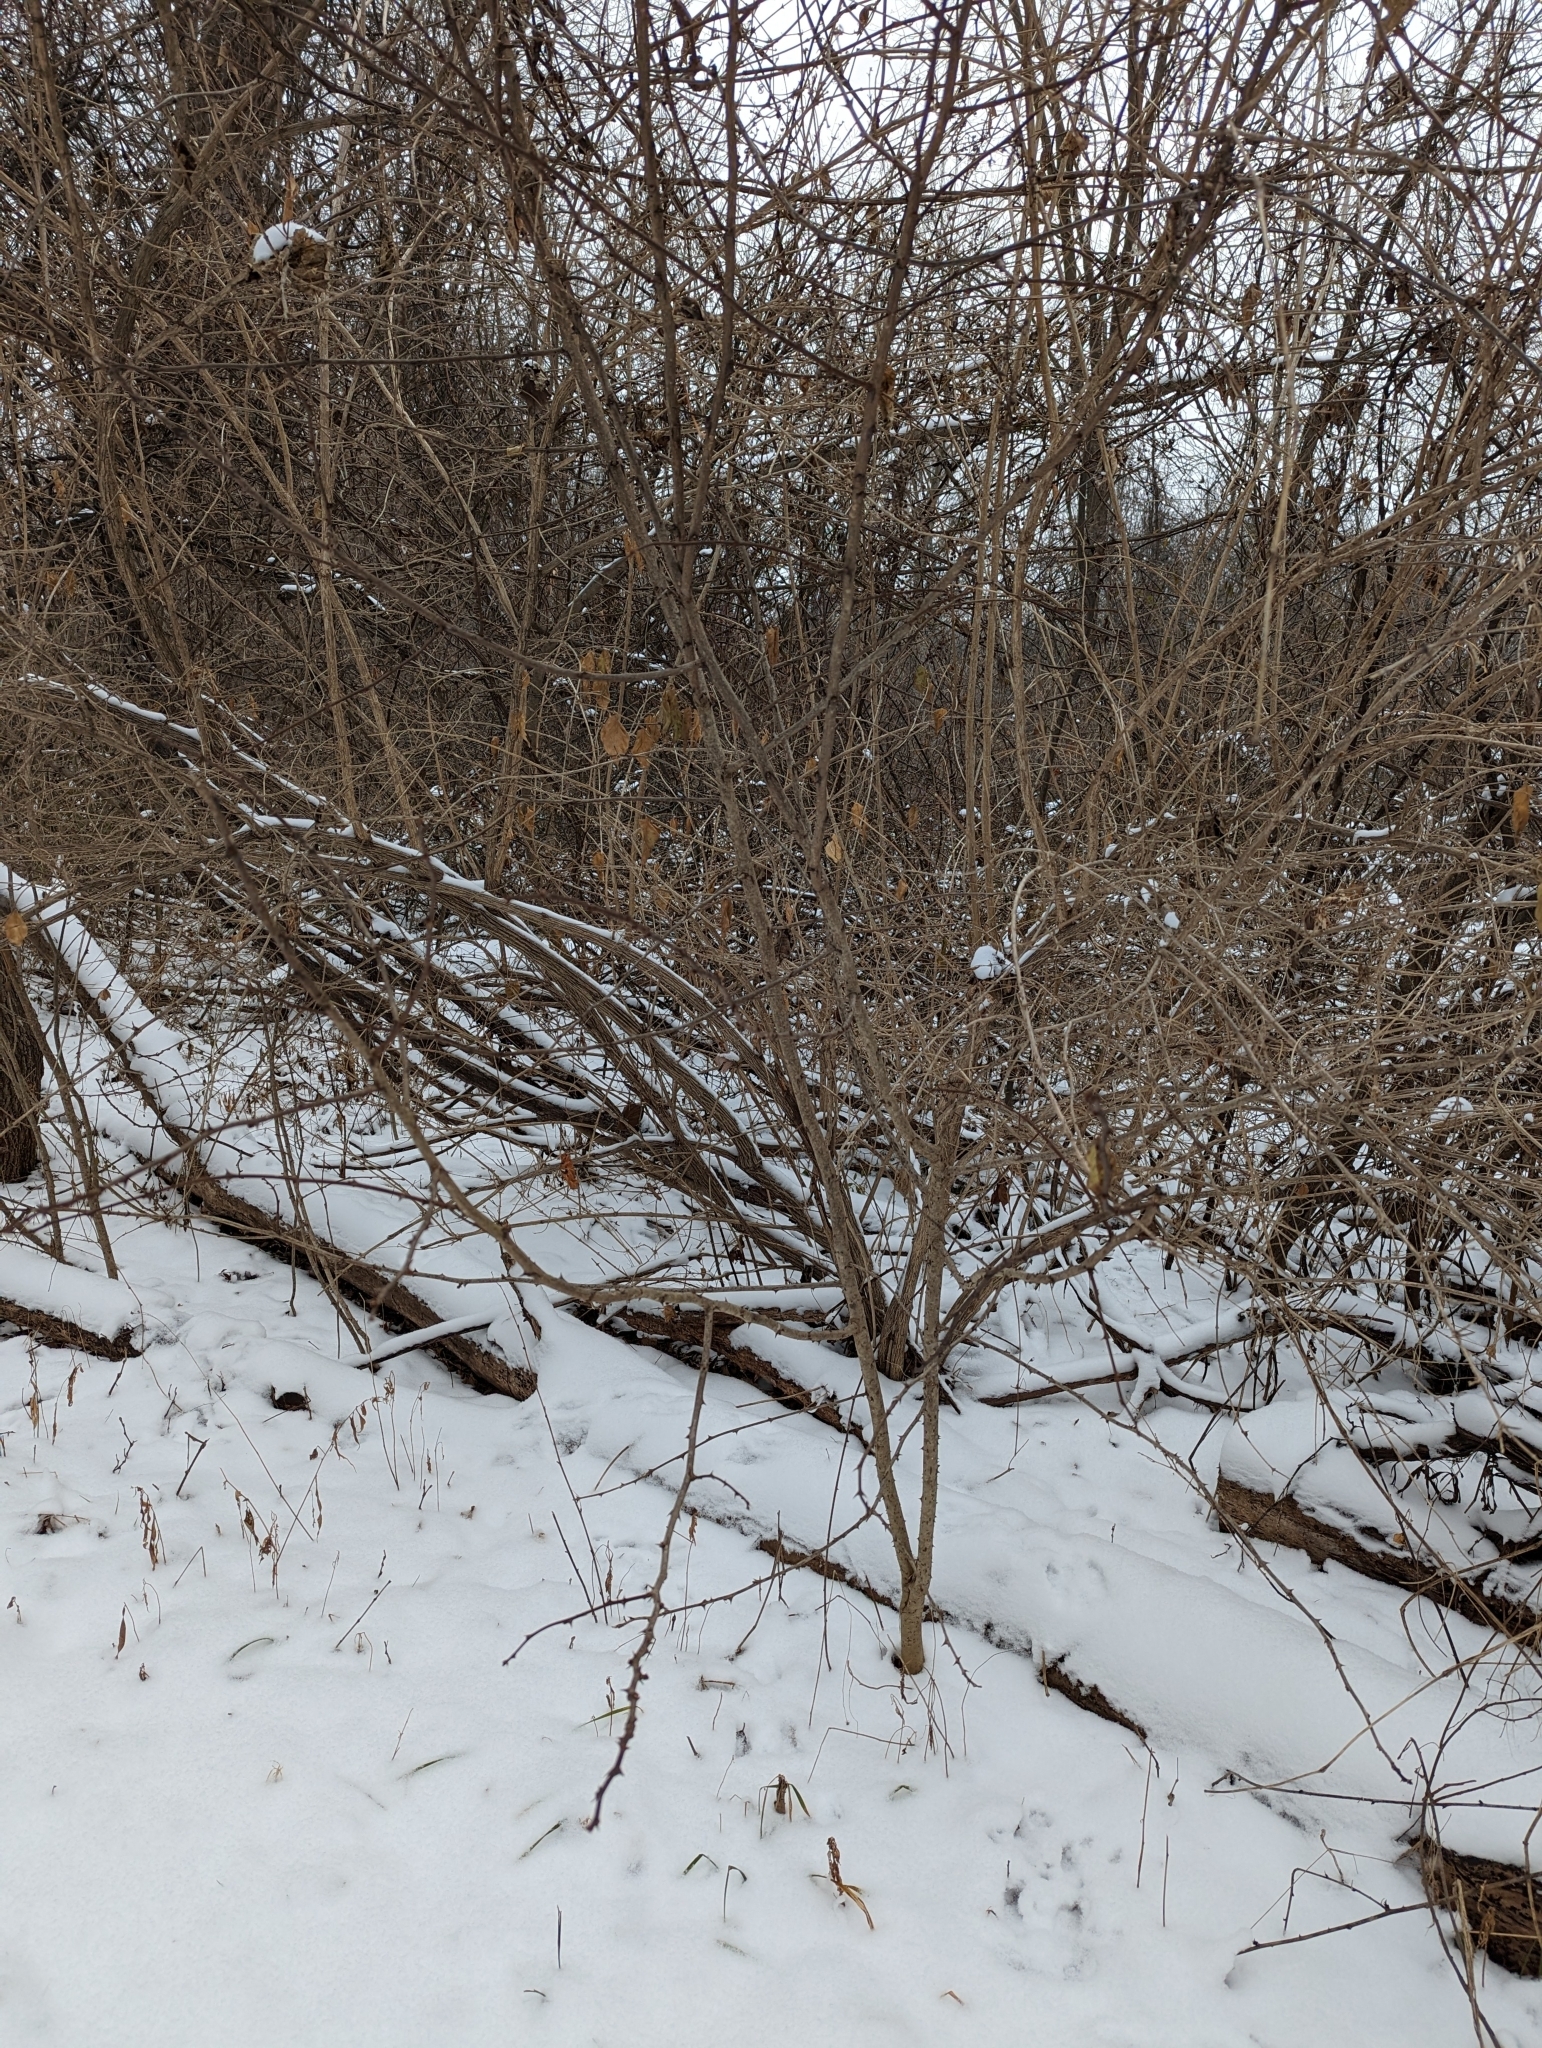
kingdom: Plantae
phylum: Tracheophyta
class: Magnoliopsida
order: Sapindales
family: Rutaceae
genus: Zanthoxylum
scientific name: Zanthoxylum americanum
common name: Northern prickly-ash
